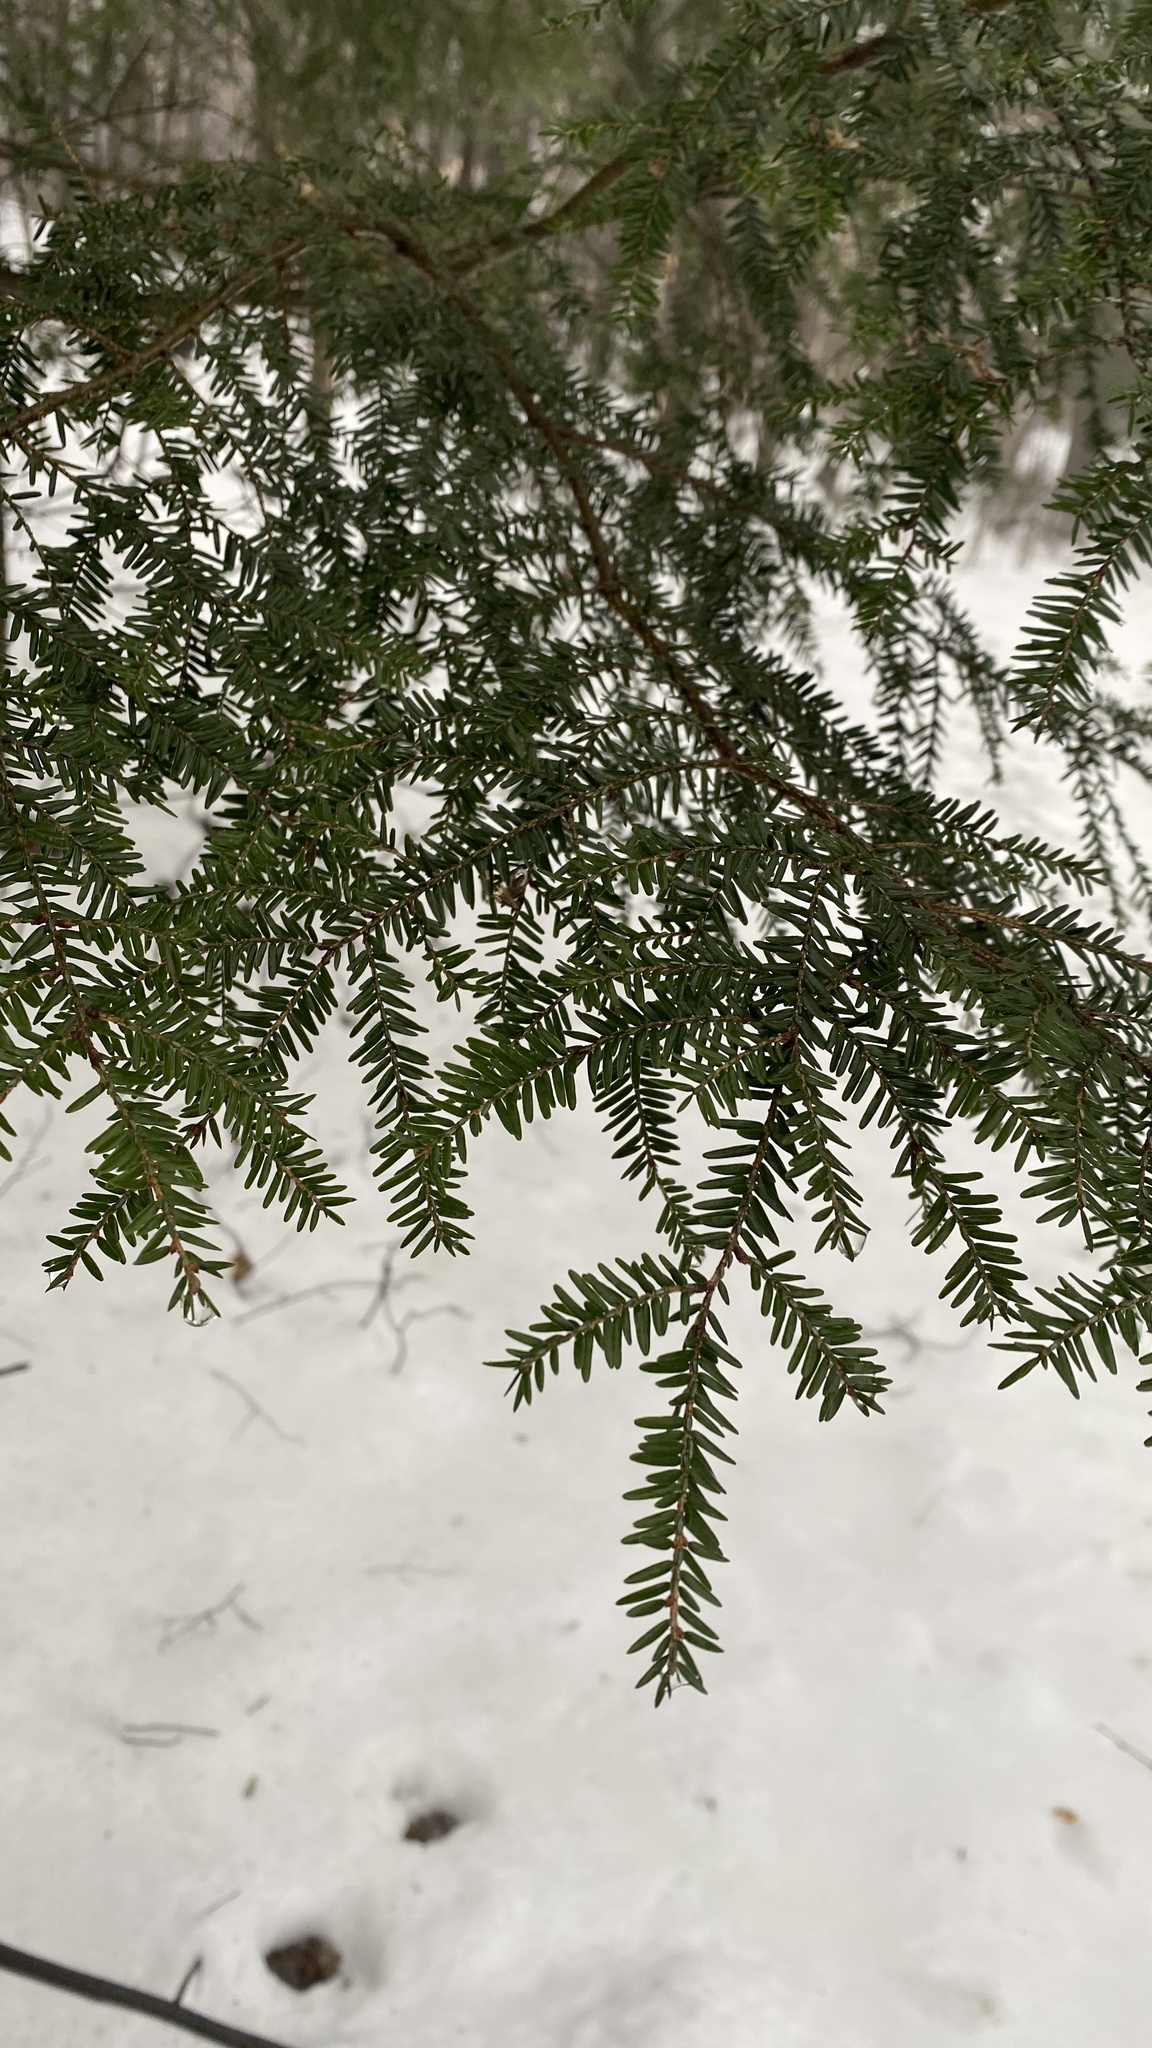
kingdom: Plantae
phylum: Tracheophyta
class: Pinopsida
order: Pinales
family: Pinaceae
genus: Tsuga
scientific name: Tsuga canadensis
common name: Eastern hemlock
